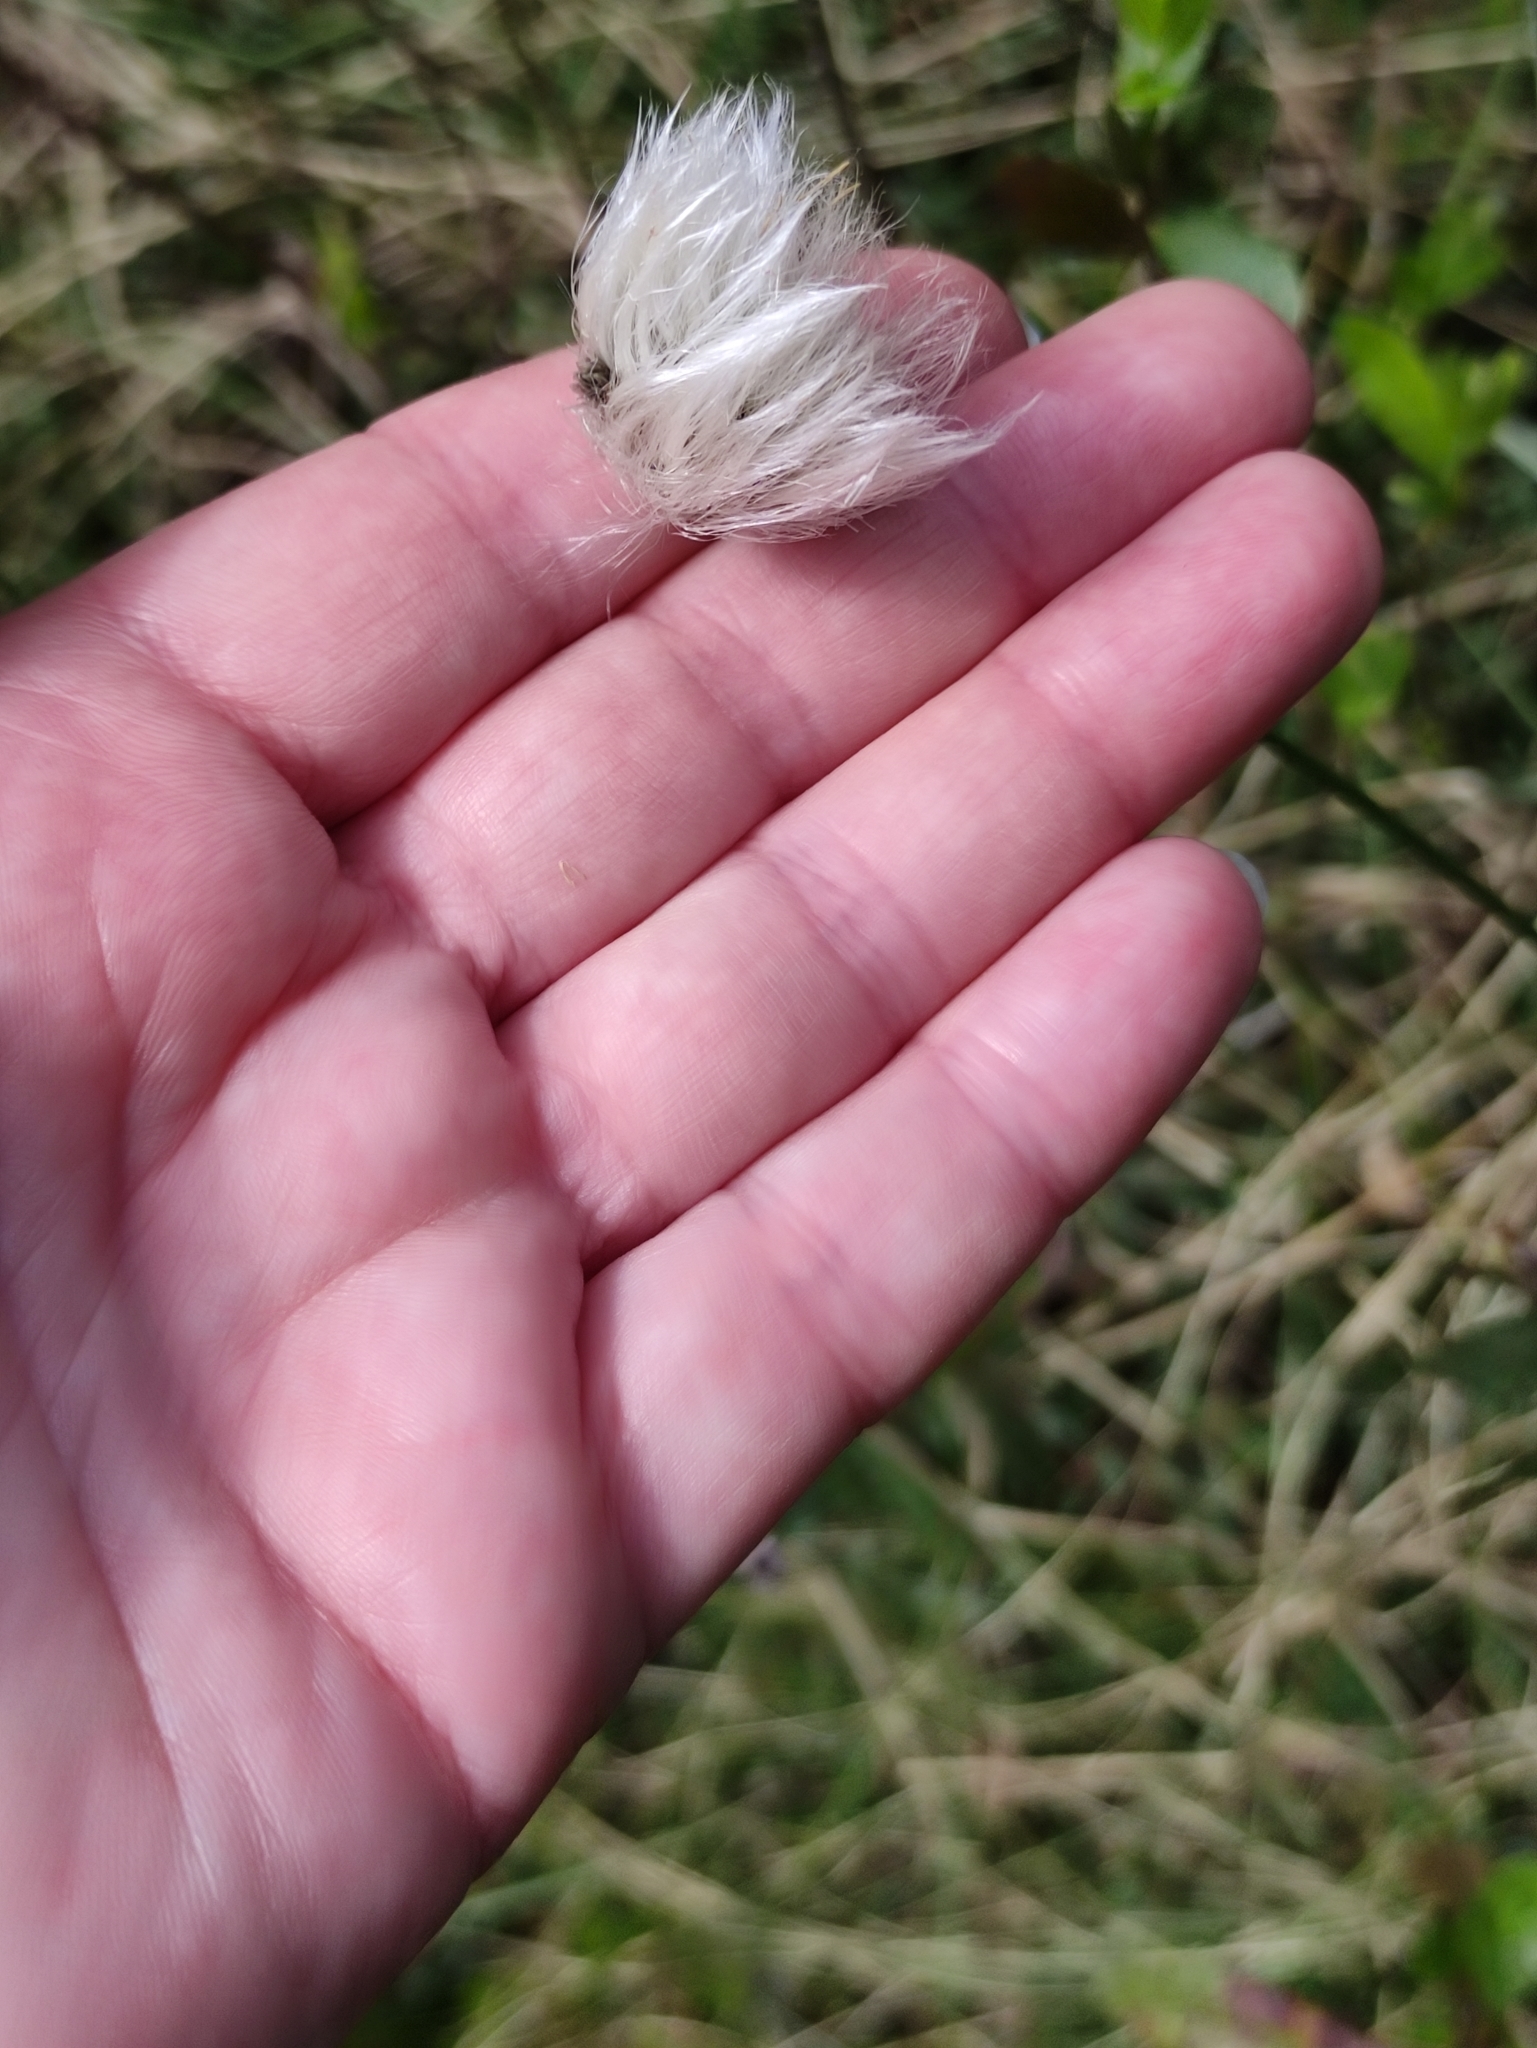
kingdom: Plantae
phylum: Tracheophyta
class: Liliopsida
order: Poales
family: Cyperaceae
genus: Eriophorum
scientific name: Eriophorum vaginatum
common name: Hare's-tail cottongrass
